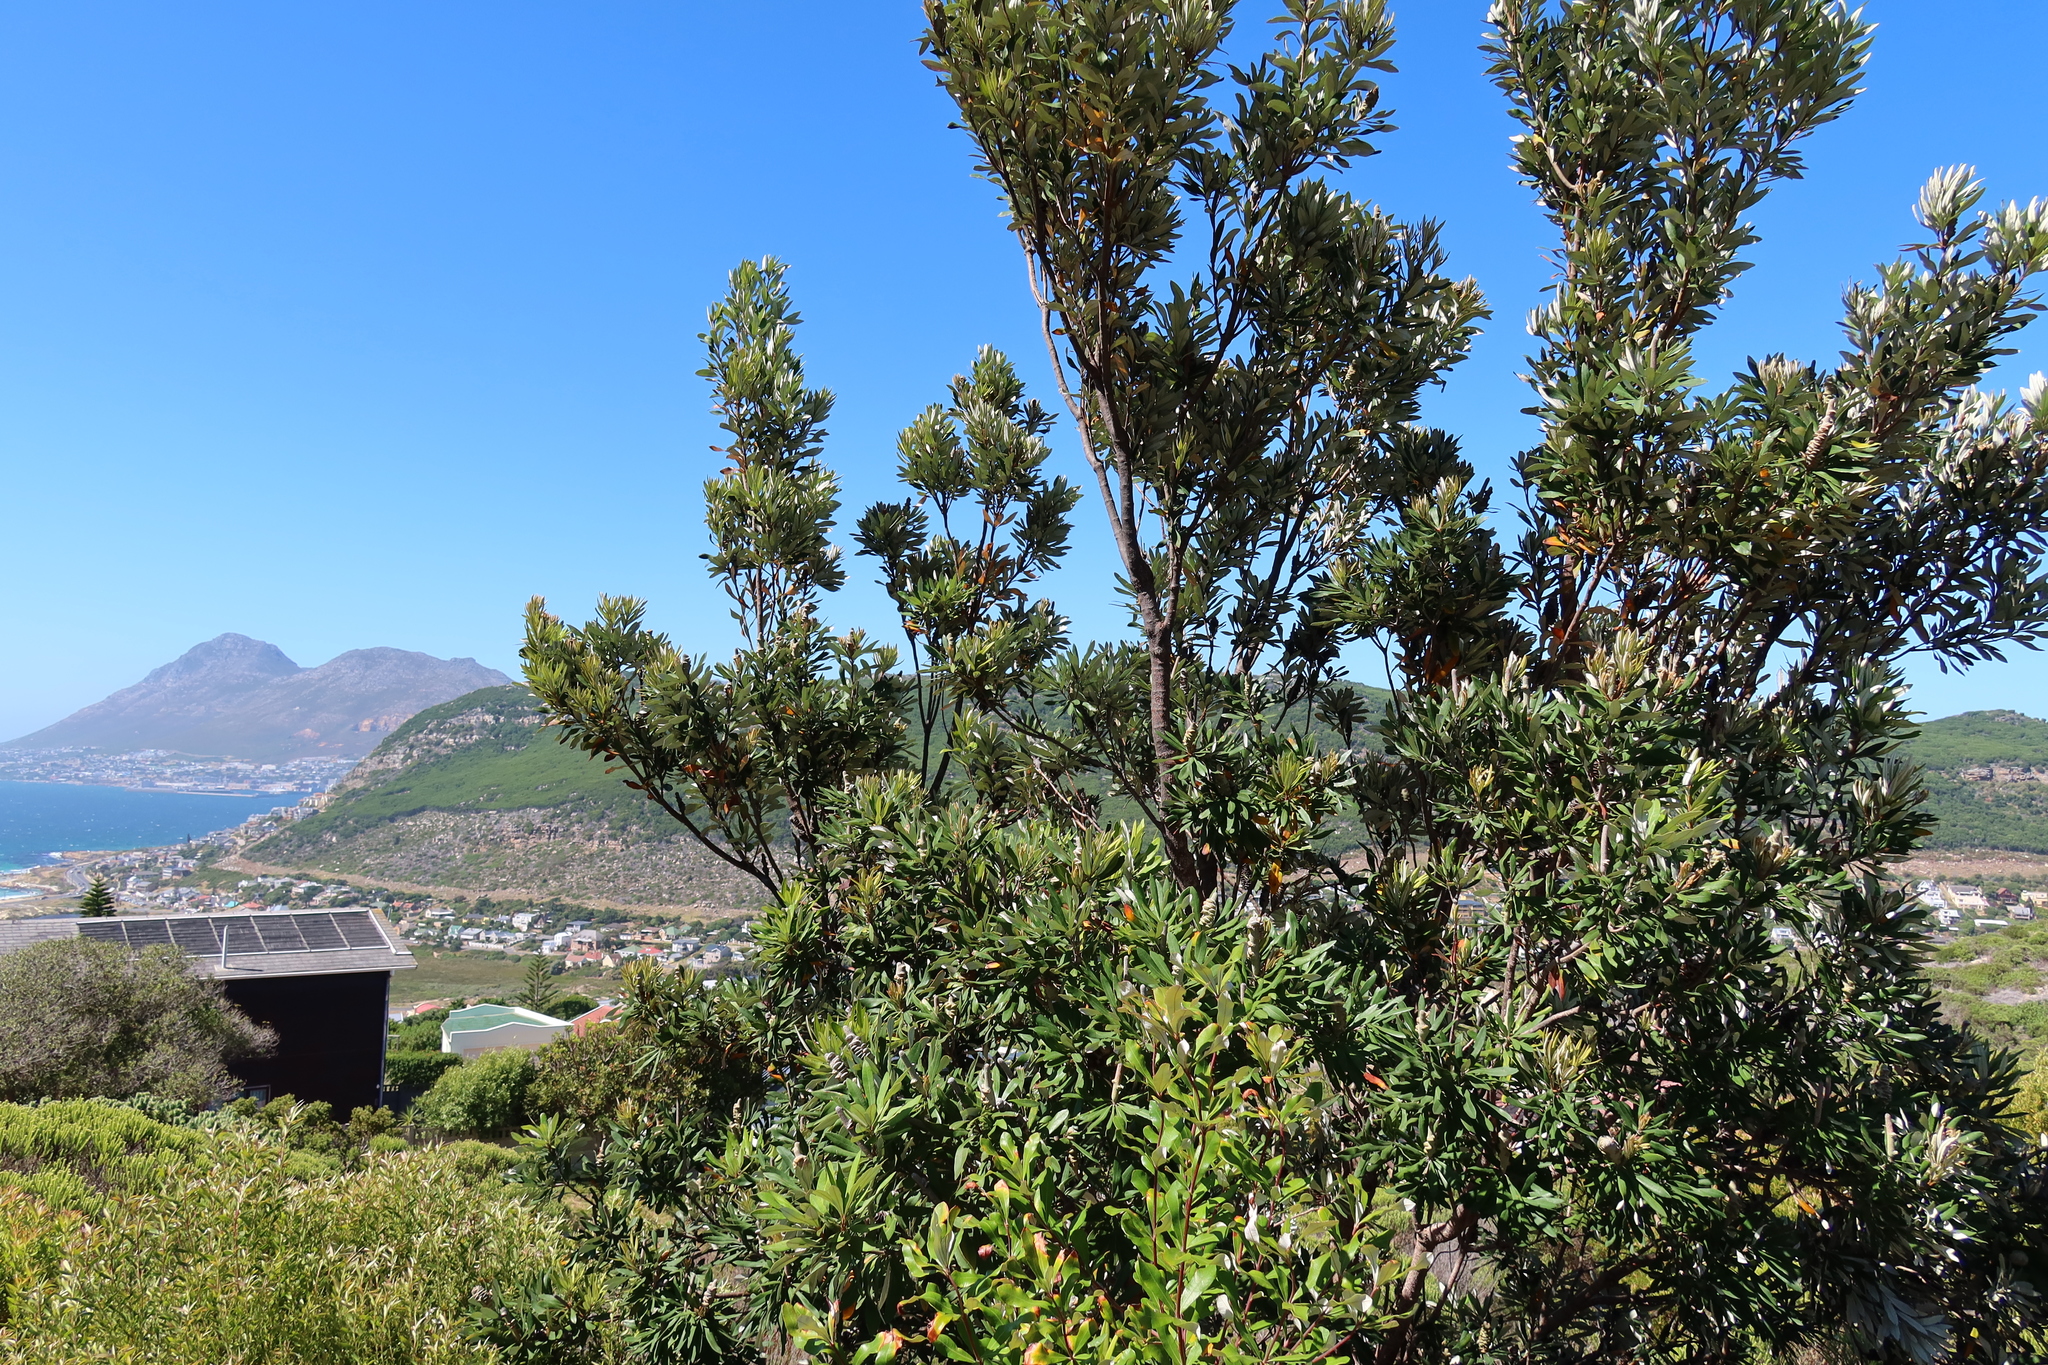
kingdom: Plantae
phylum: Tracheophyta
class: Magnoliopsida
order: Proteales
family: Proteaceae
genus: Banksia
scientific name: Banksia integrifolia
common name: White-honeysuckle
